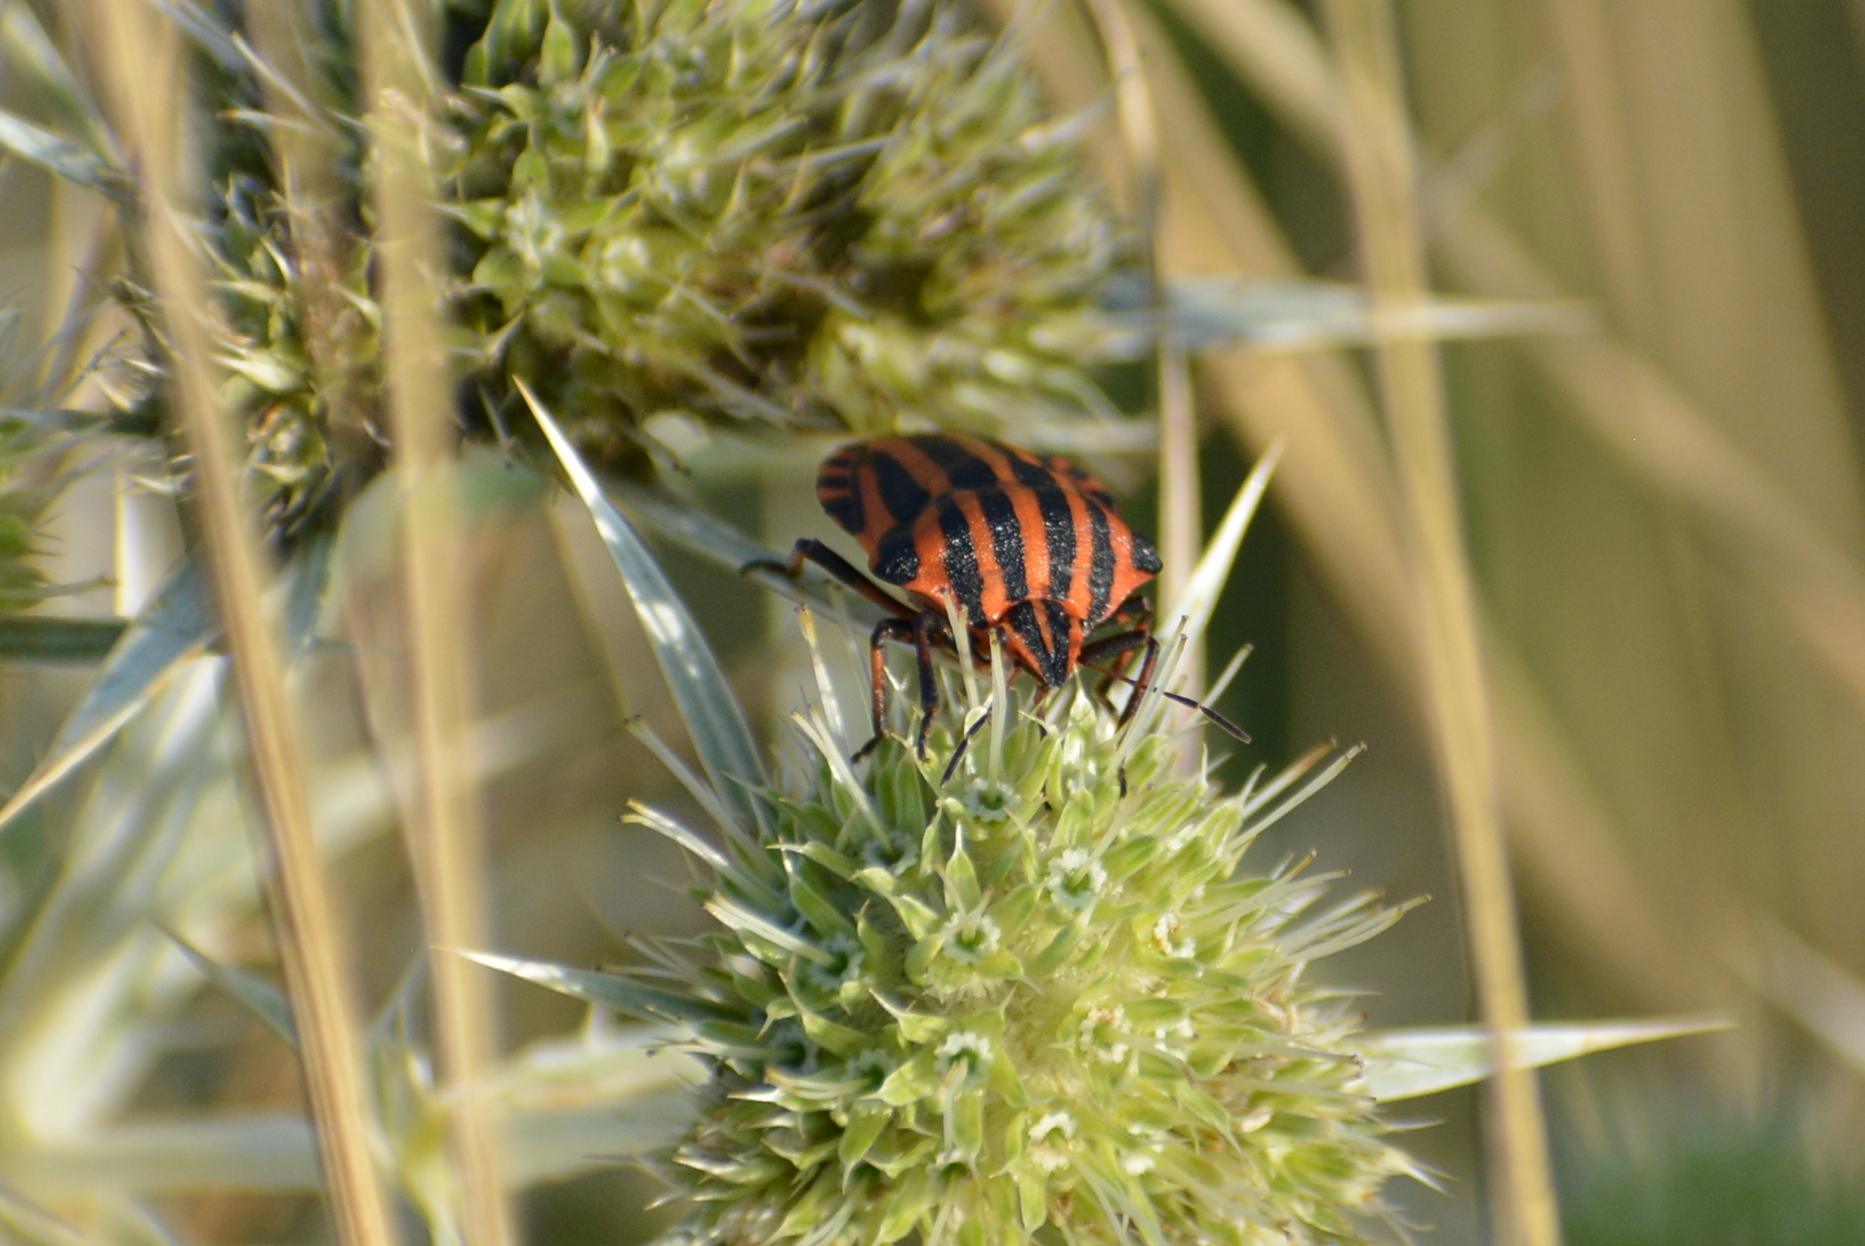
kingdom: Animalia
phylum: Arthropoda
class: Insecta
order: Hemiptera
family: Pentatomidae
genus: Graphosoma
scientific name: Graphosoma italicum
